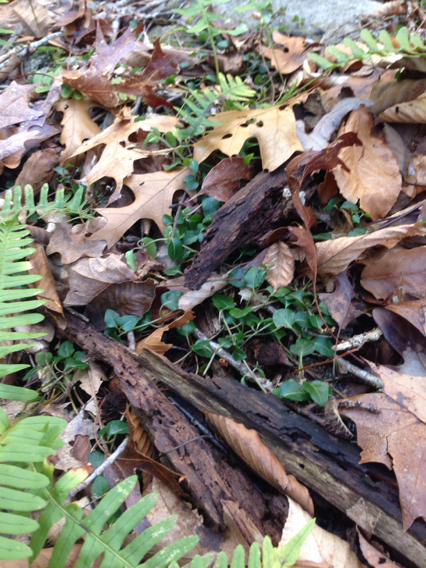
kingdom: Plantae
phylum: Tracheophyta
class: Magnoliopsida
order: Gentianales
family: Rubiaceae
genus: Mitchella
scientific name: Mitchella repens
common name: Partridge-berry
